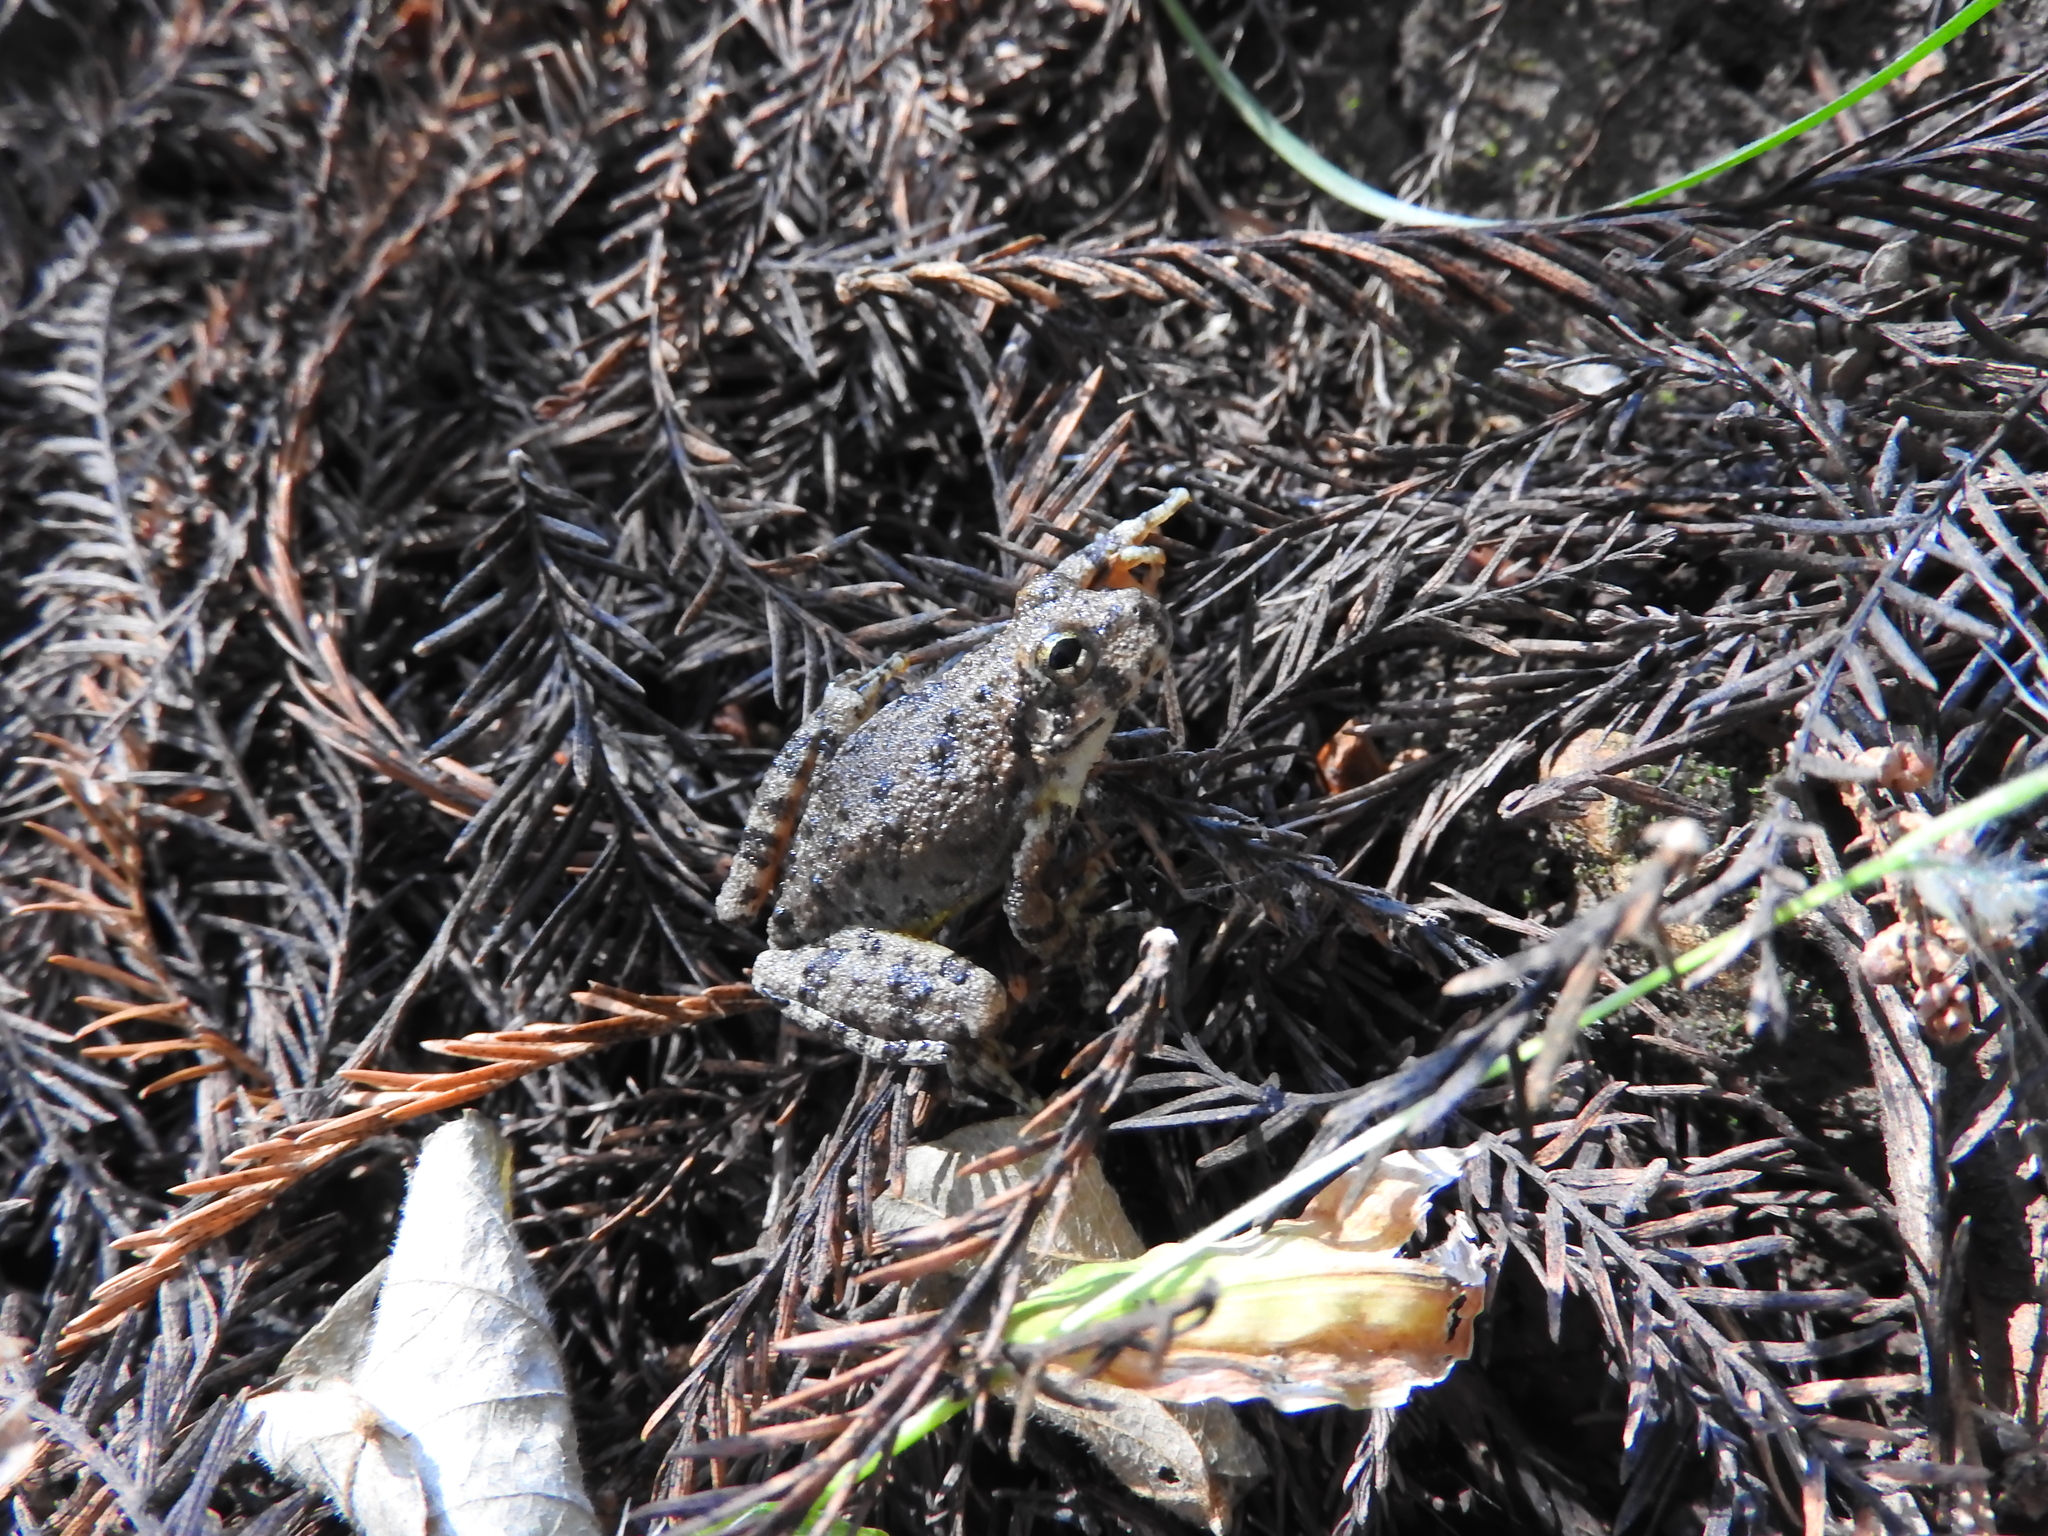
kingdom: Animalia
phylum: Chordata
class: Amphibia
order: Anura
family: Hylidae
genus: Dryophytes
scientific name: Dryophytes arenicolor
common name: Canyon treefrog
